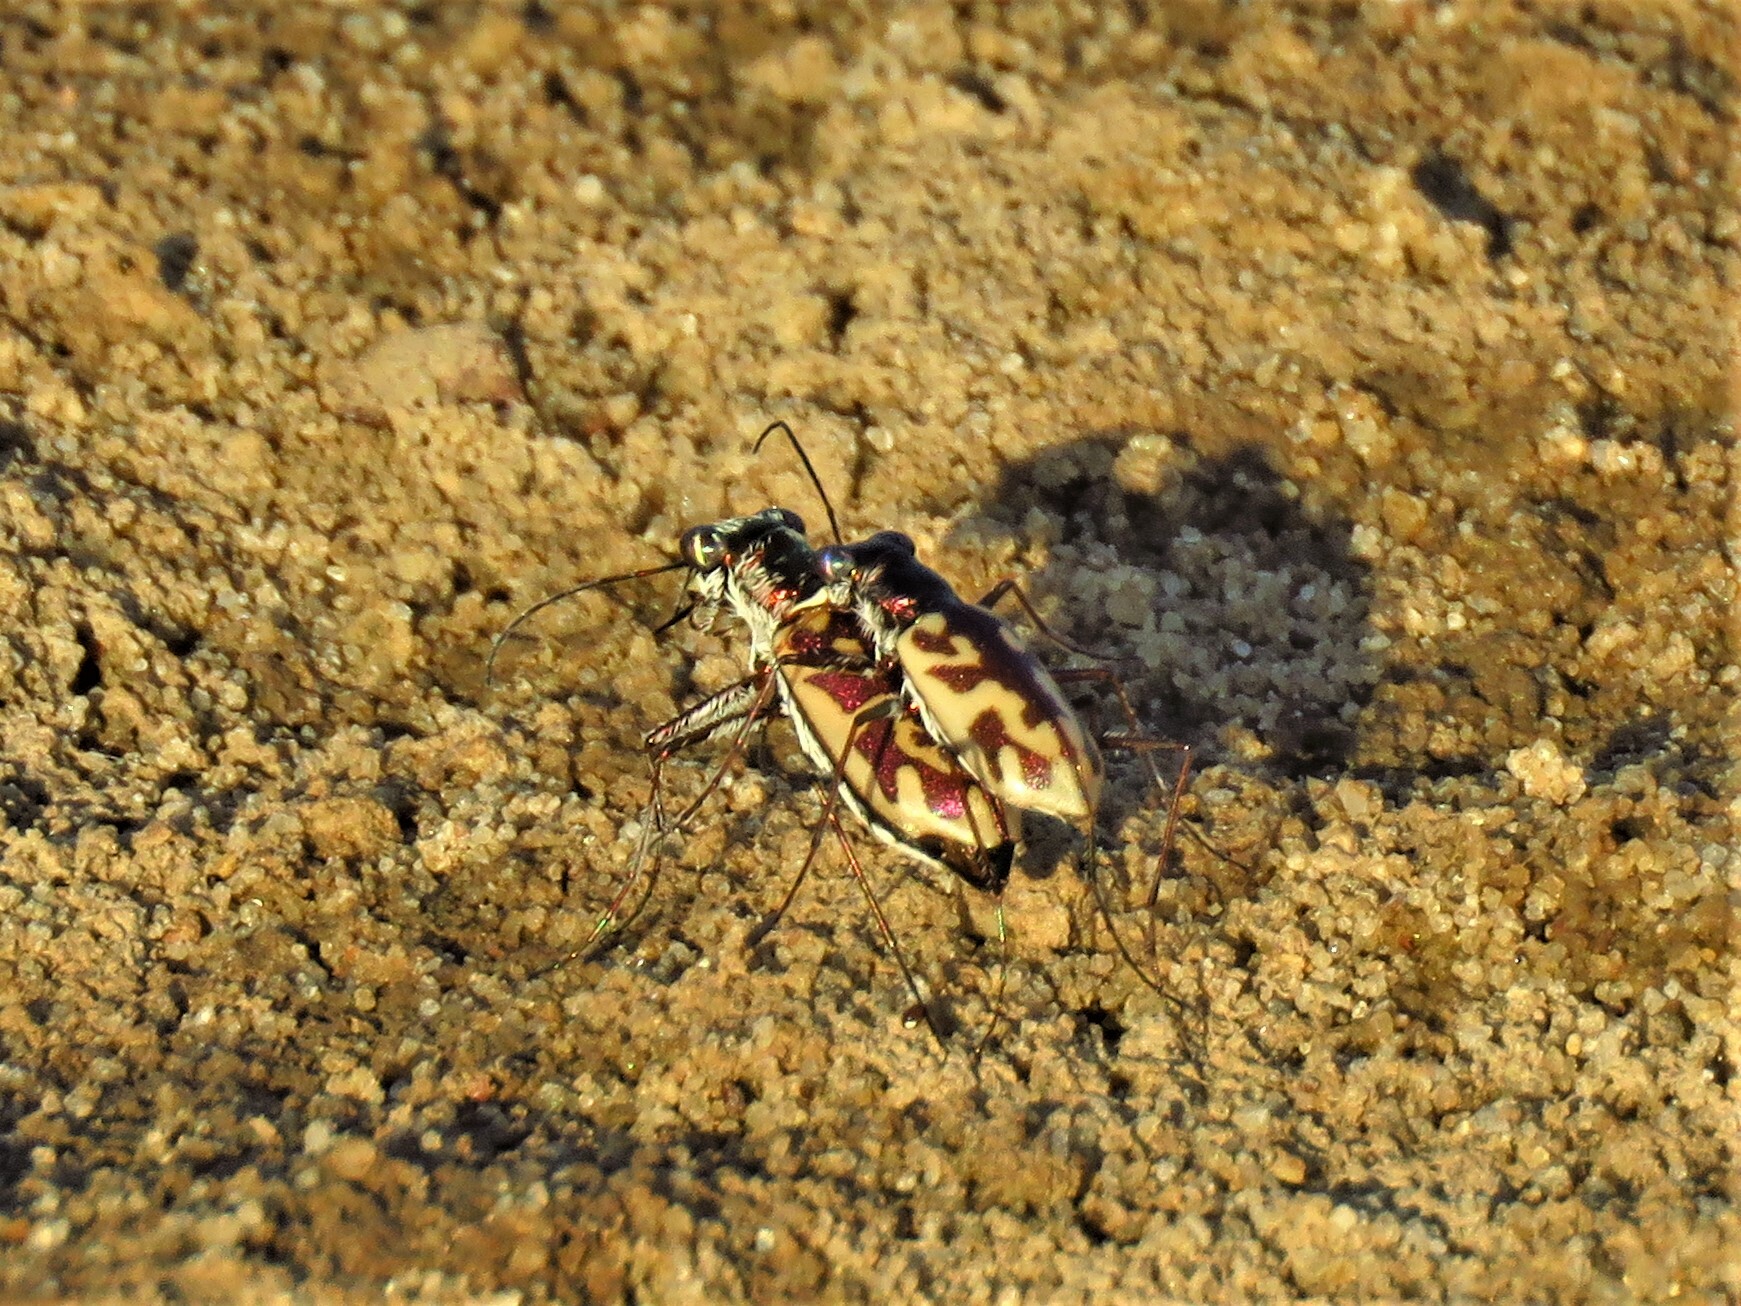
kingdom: Animalia
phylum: Arthropoda
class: Insecta
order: Coleoptera
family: Carabidae
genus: Ellipsoptera
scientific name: Ellipsoptera cuprascens
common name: Coppery tiger beetle
